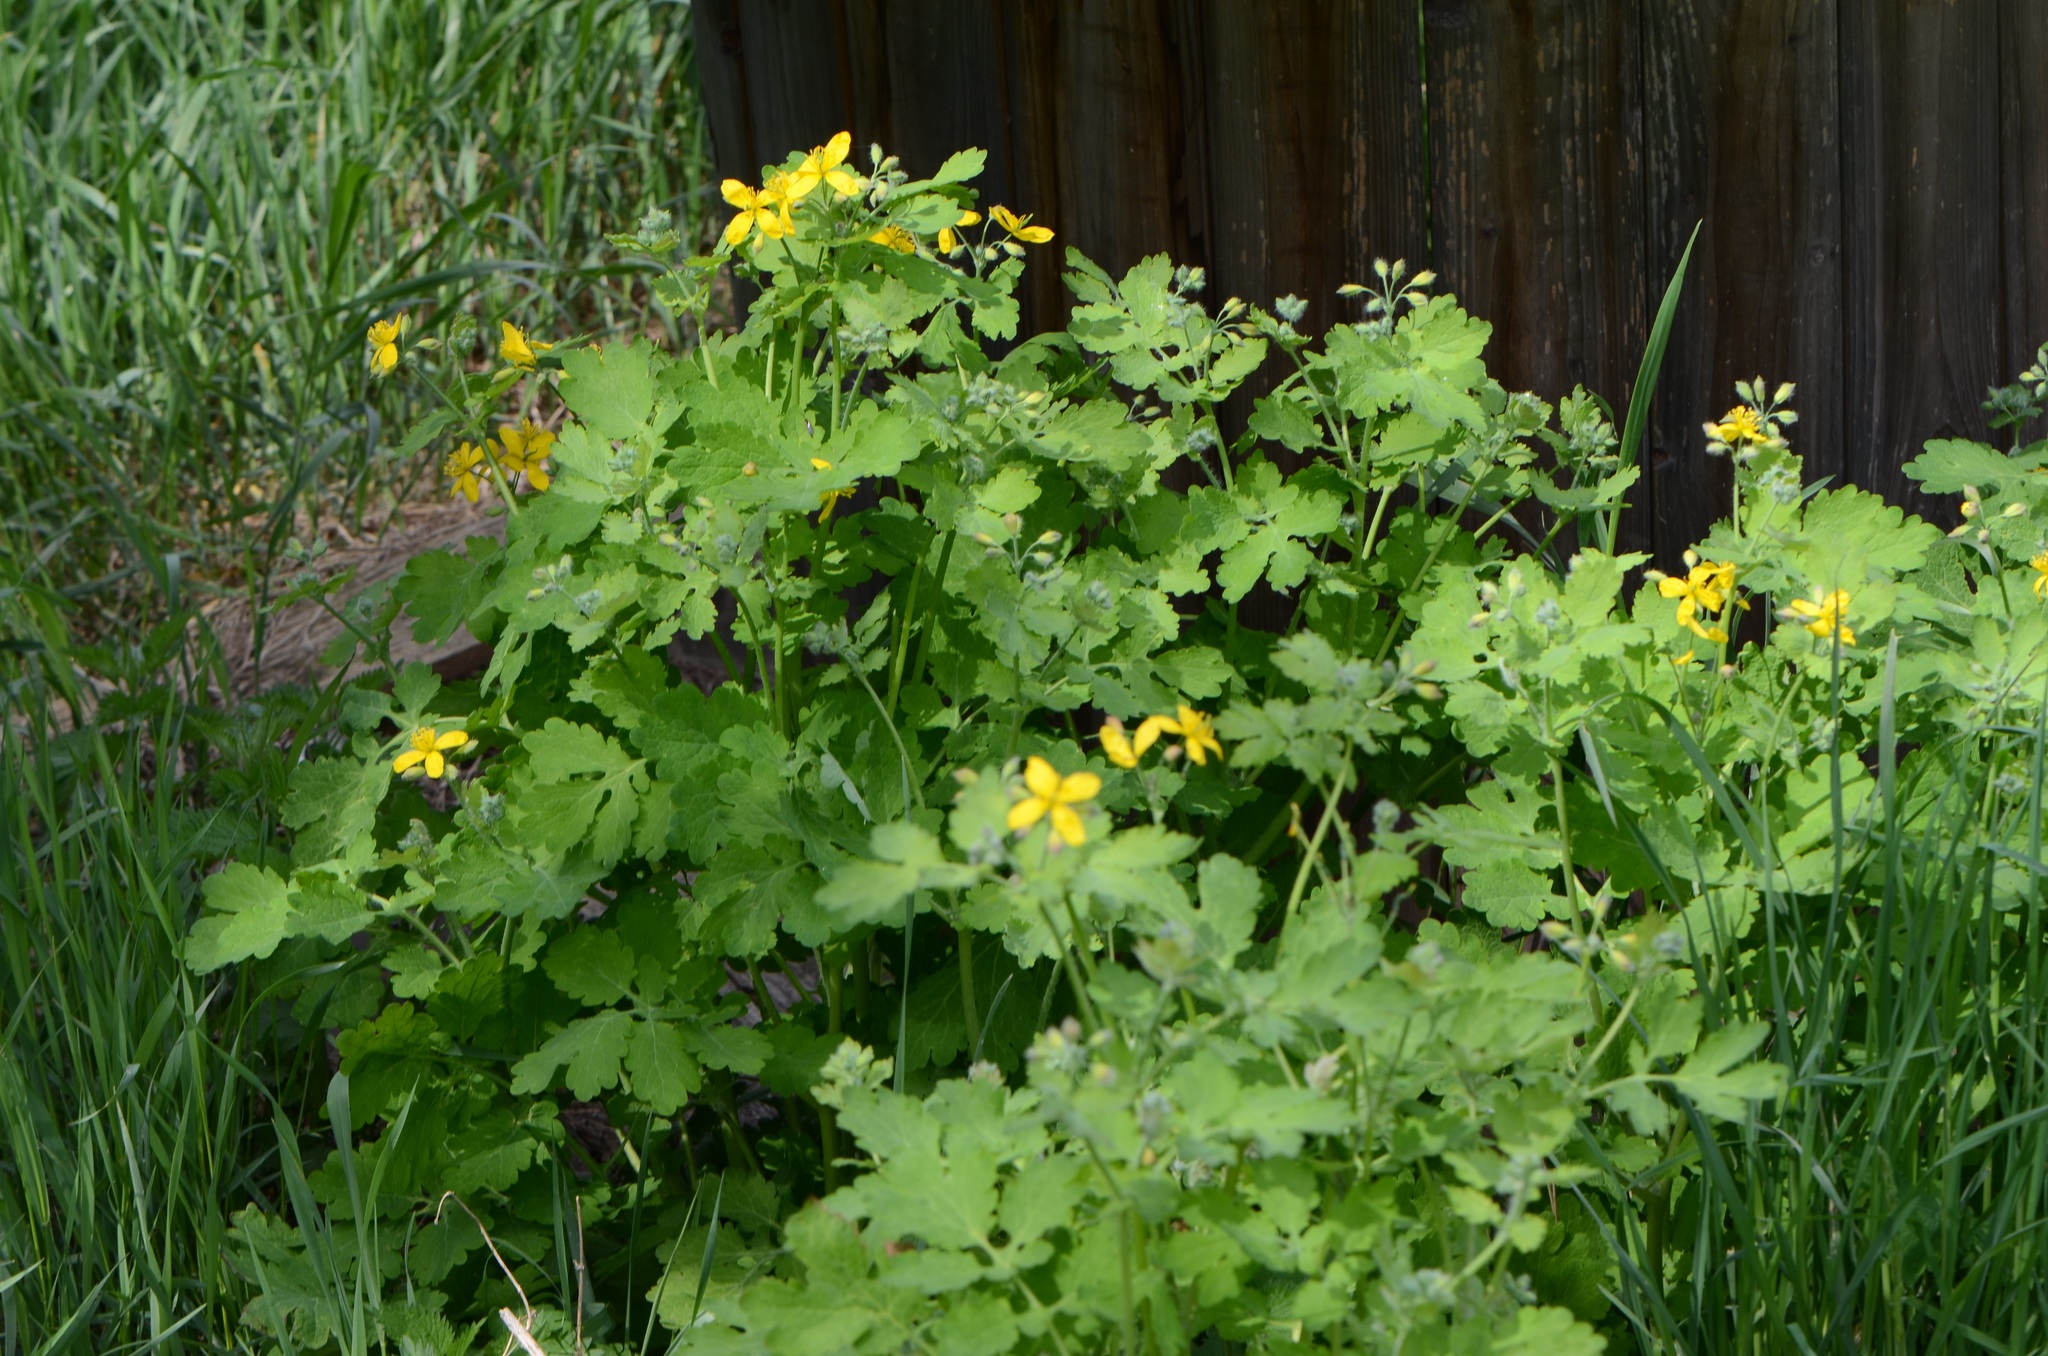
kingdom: Plantae
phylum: Tracheophyta
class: Magnoliopsida
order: Ranunculales
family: Papaveraceae
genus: Chelidonium
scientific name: Chelidonium majus
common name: Greater celandine
